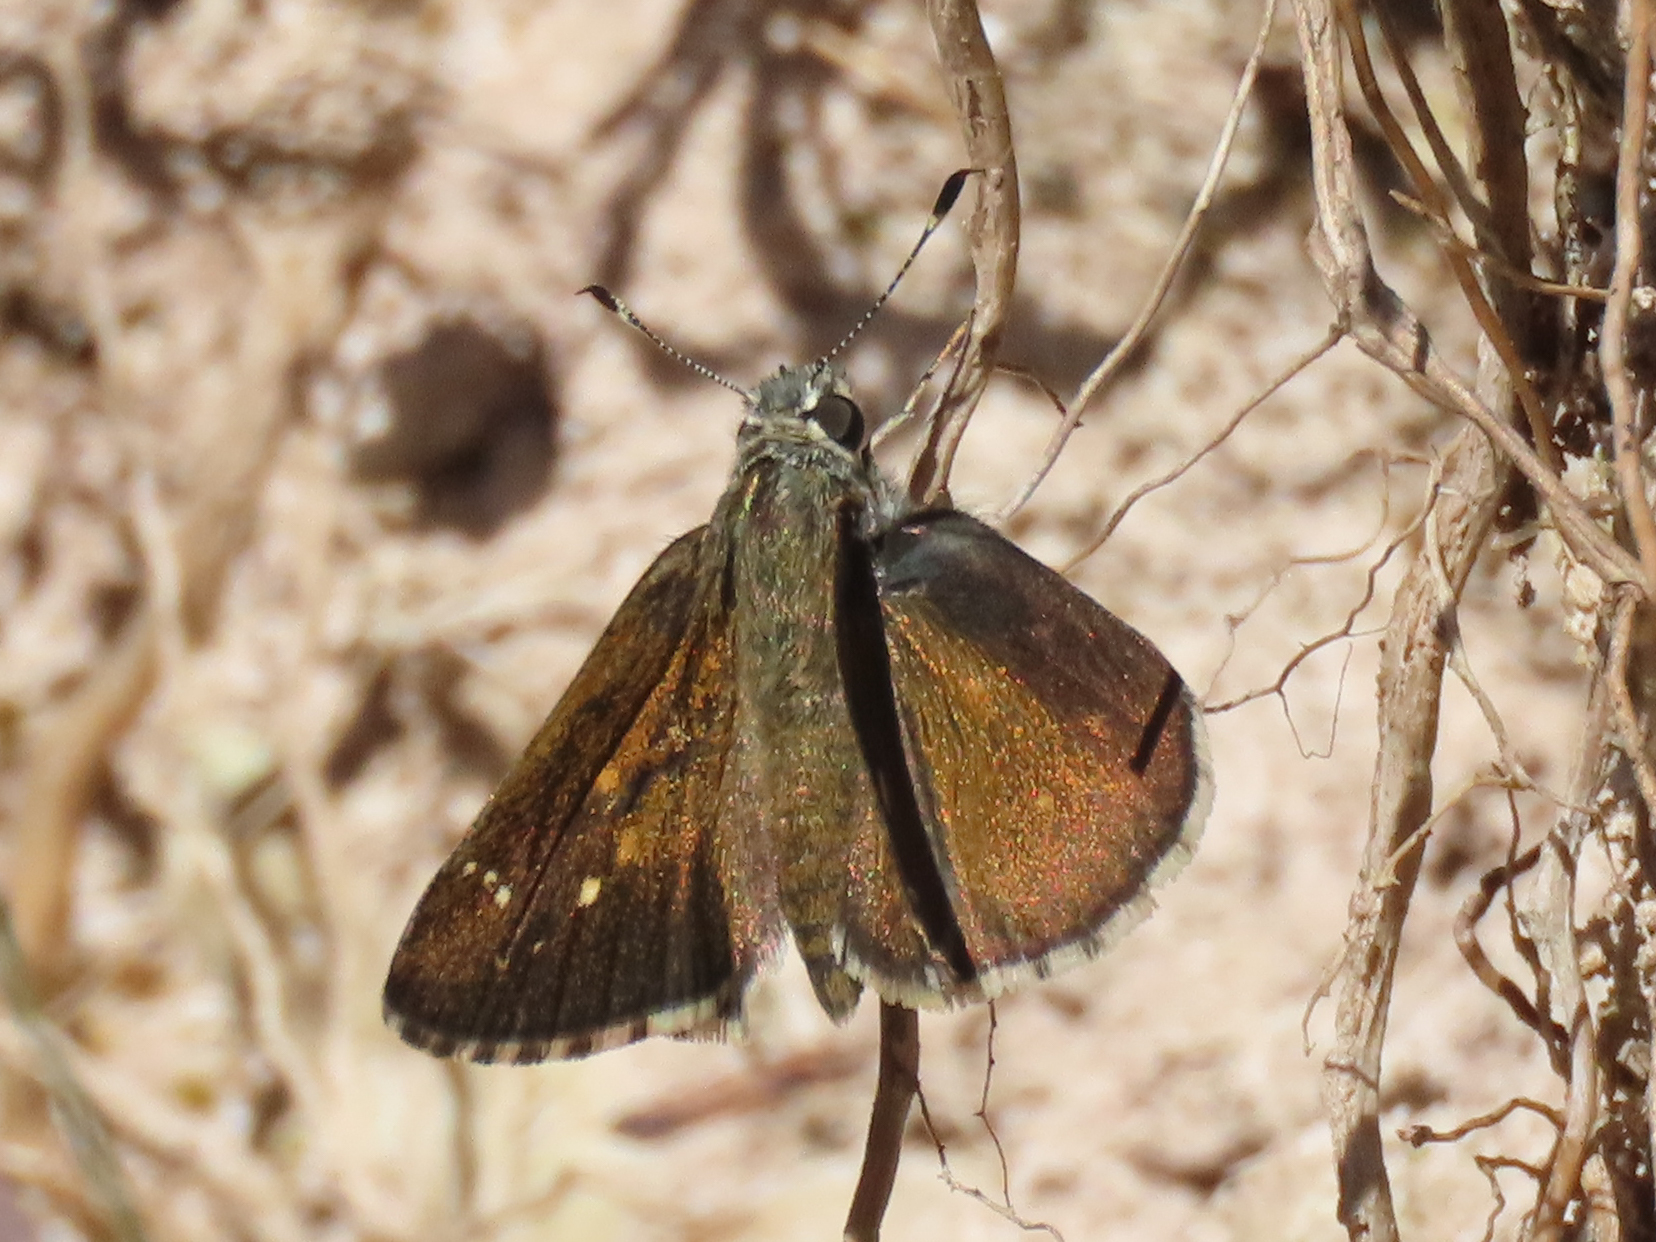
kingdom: Animalia
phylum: Arthropoda
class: Insecta
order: Lepidoptera
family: Hesperiidae
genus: Mastor
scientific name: Mastor exoteria
